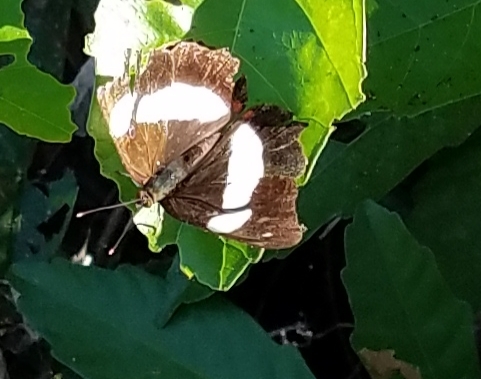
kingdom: Animalia
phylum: Arthropoda
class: Insecta
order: Lepidoptera
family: Nymphalidae
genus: Pyrrhogyra
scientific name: Pyrrhogyra otolais
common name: Double-banded banner
